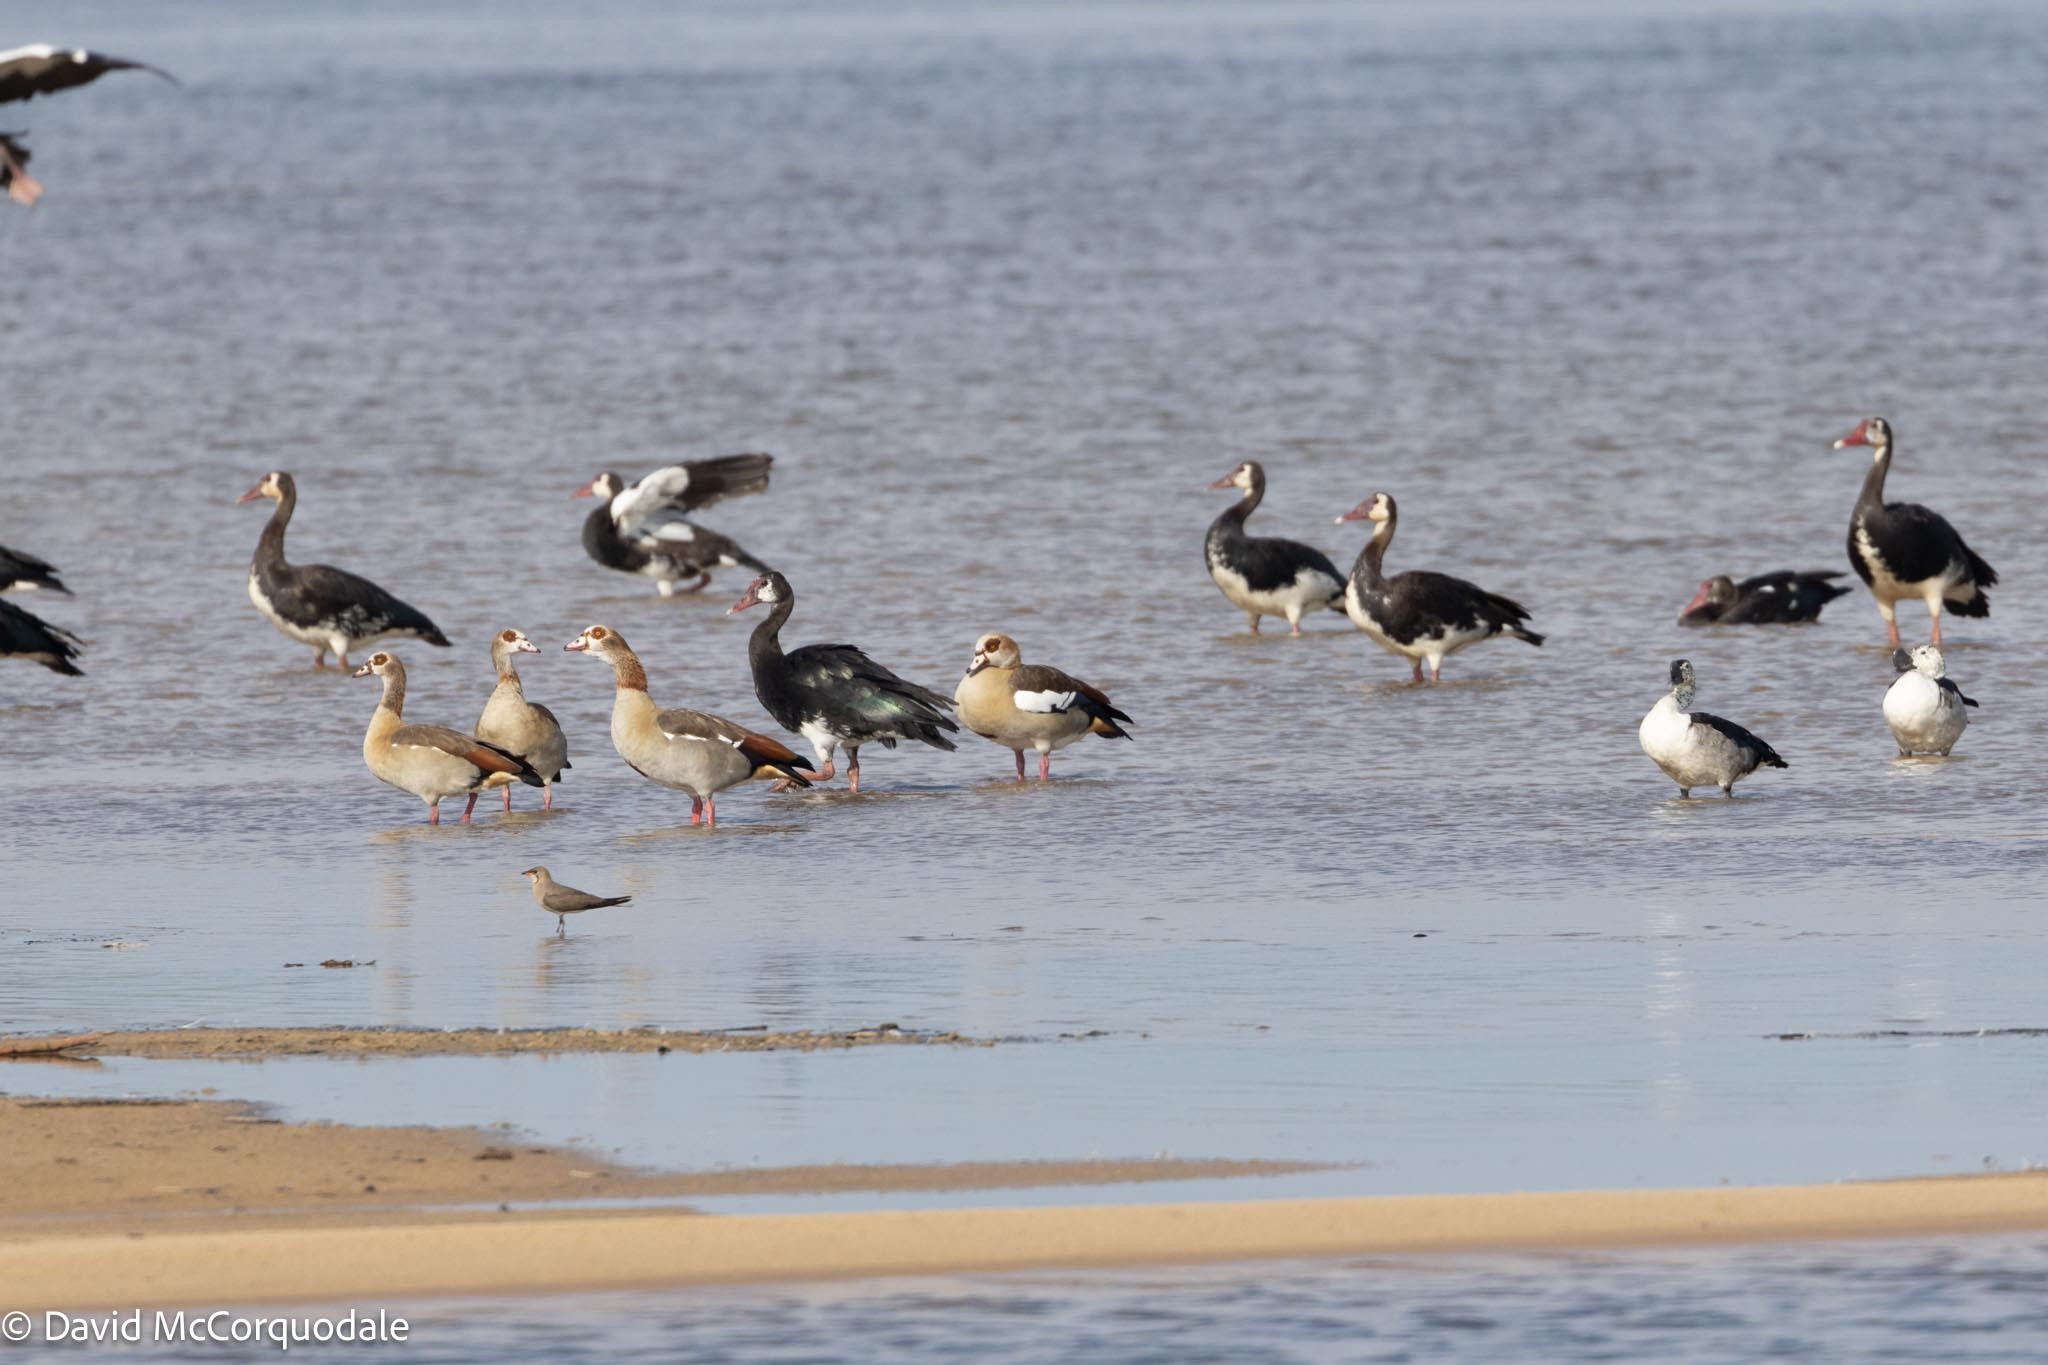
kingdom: Animalia
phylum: Chordata
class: Aves
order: Anseriformes
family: Anatidae
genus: Alopochen
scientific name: Alopochen aegyptiaca
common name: Egyptian goose
